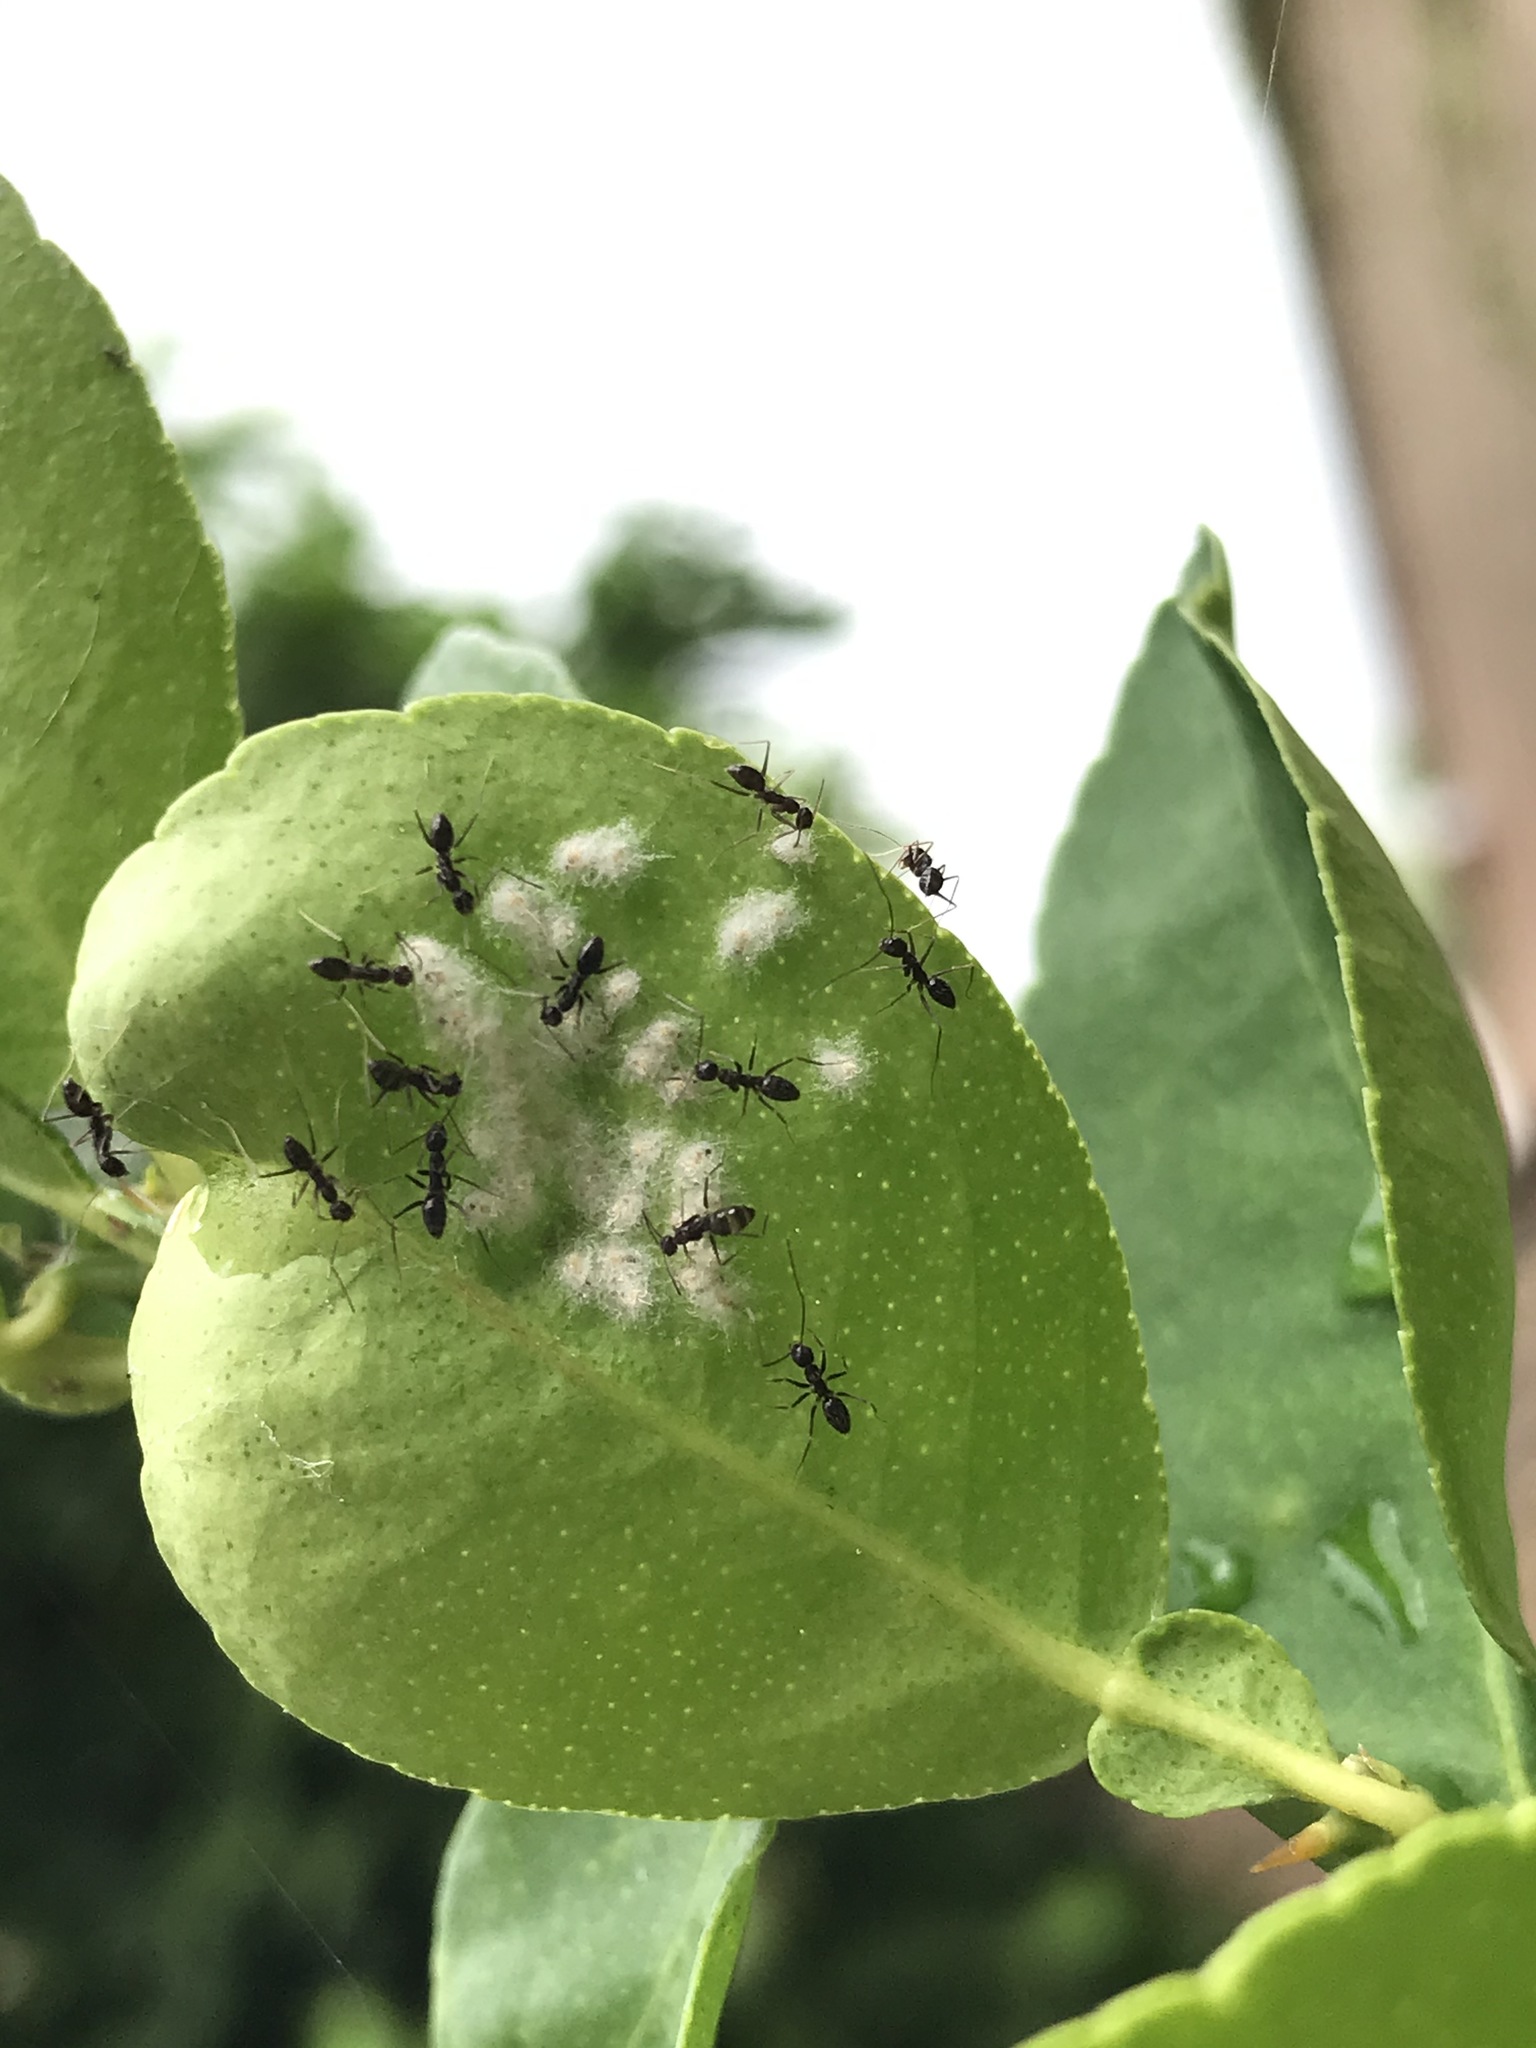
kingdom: Animalia
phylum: Arthropoda
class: Insecta
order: Hymenoptera
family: Formicidae
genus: Paratrechina
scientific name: Paratrechina longicornis
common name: Longhorned crazy ant
